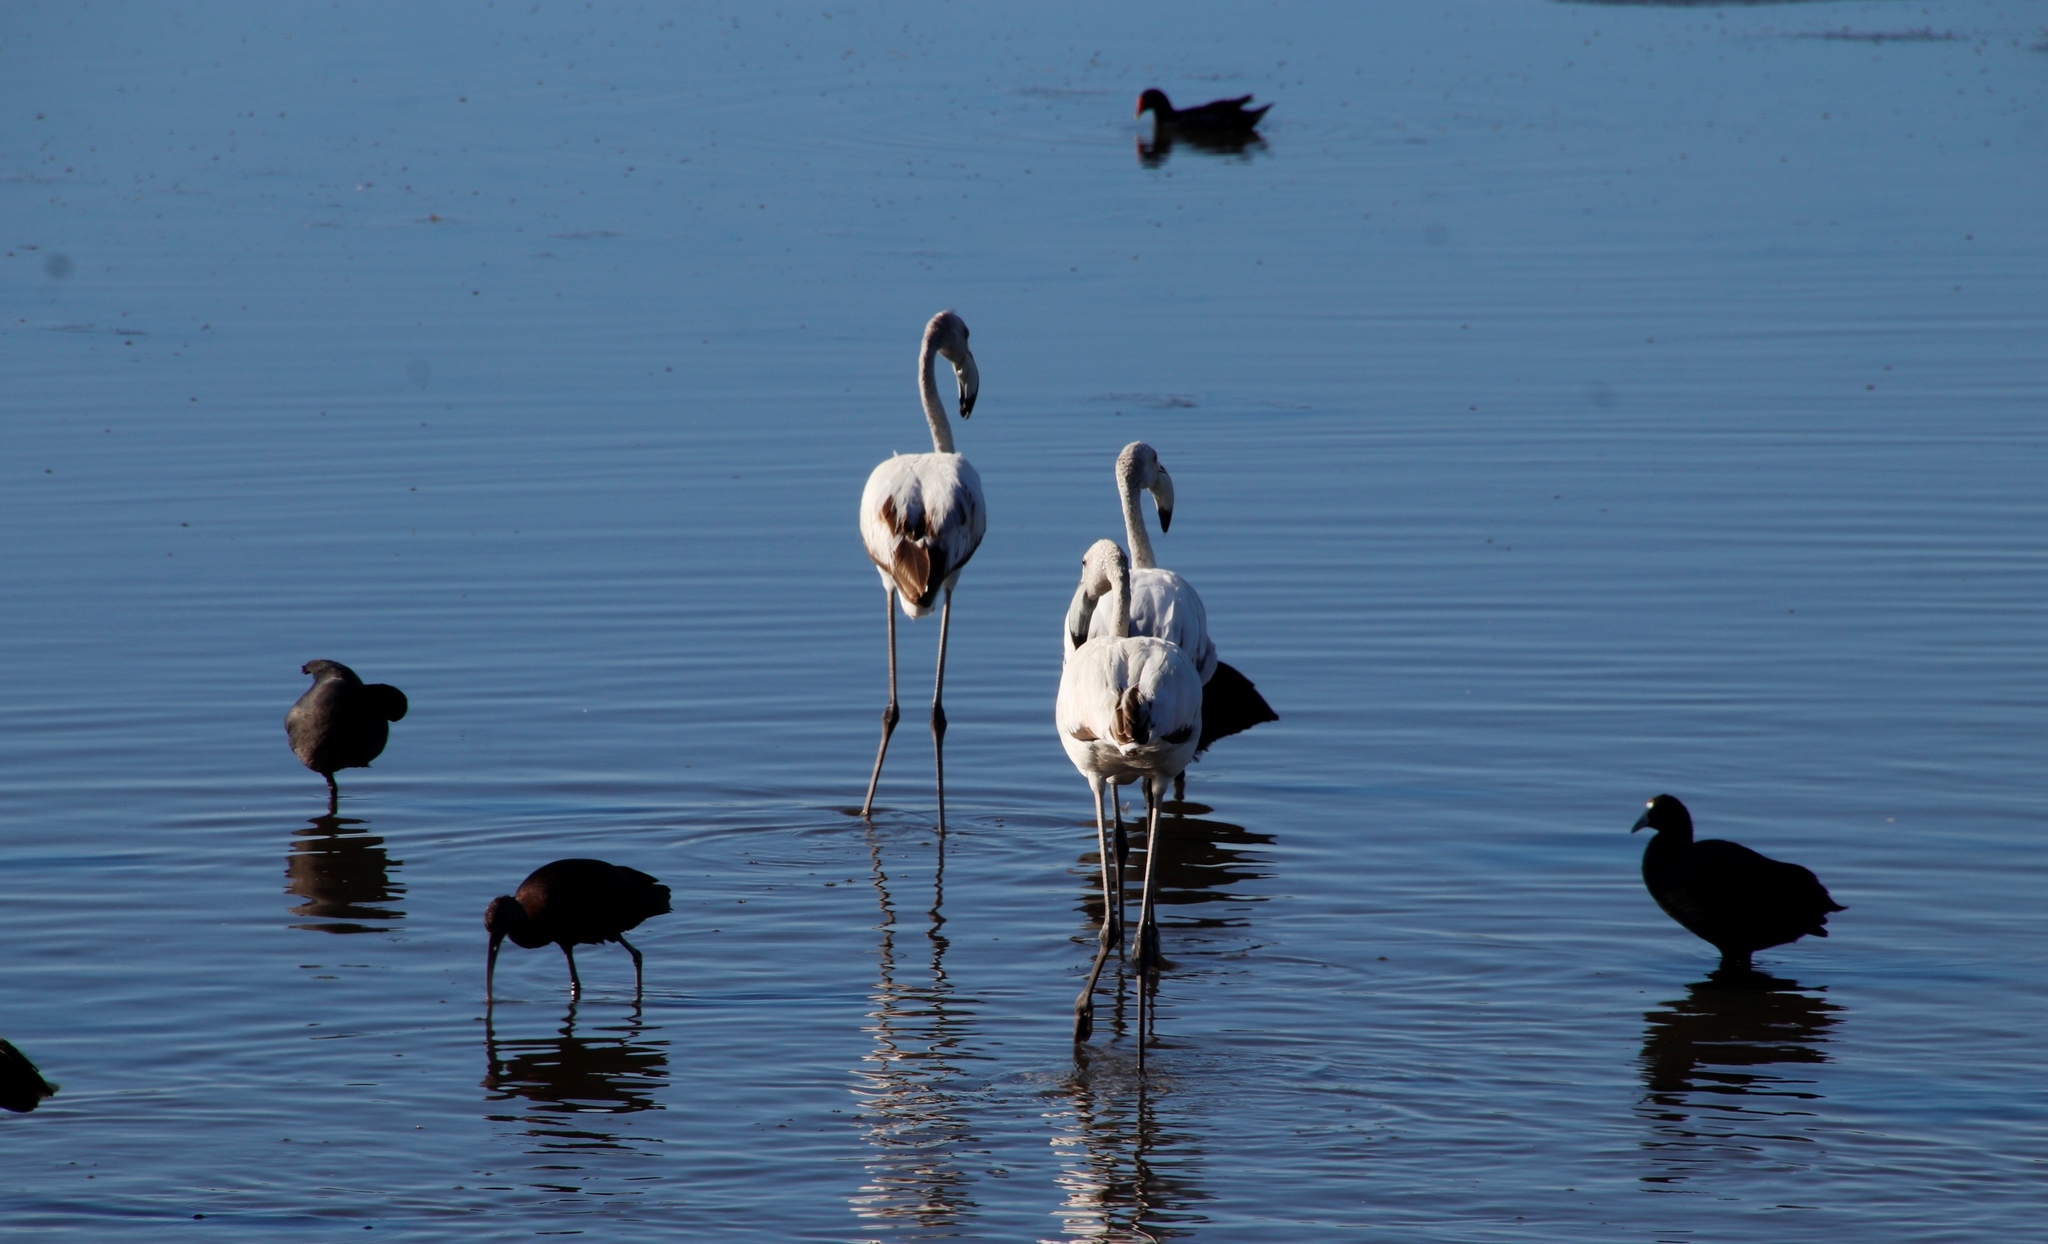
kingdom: Animalia
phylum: Chordata
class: Aves
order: Phoenicopteriformes
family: Phoenicopteridae
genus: Phoenicopterus
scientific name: Phoenicopterus roseus
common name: Greater flamingo
